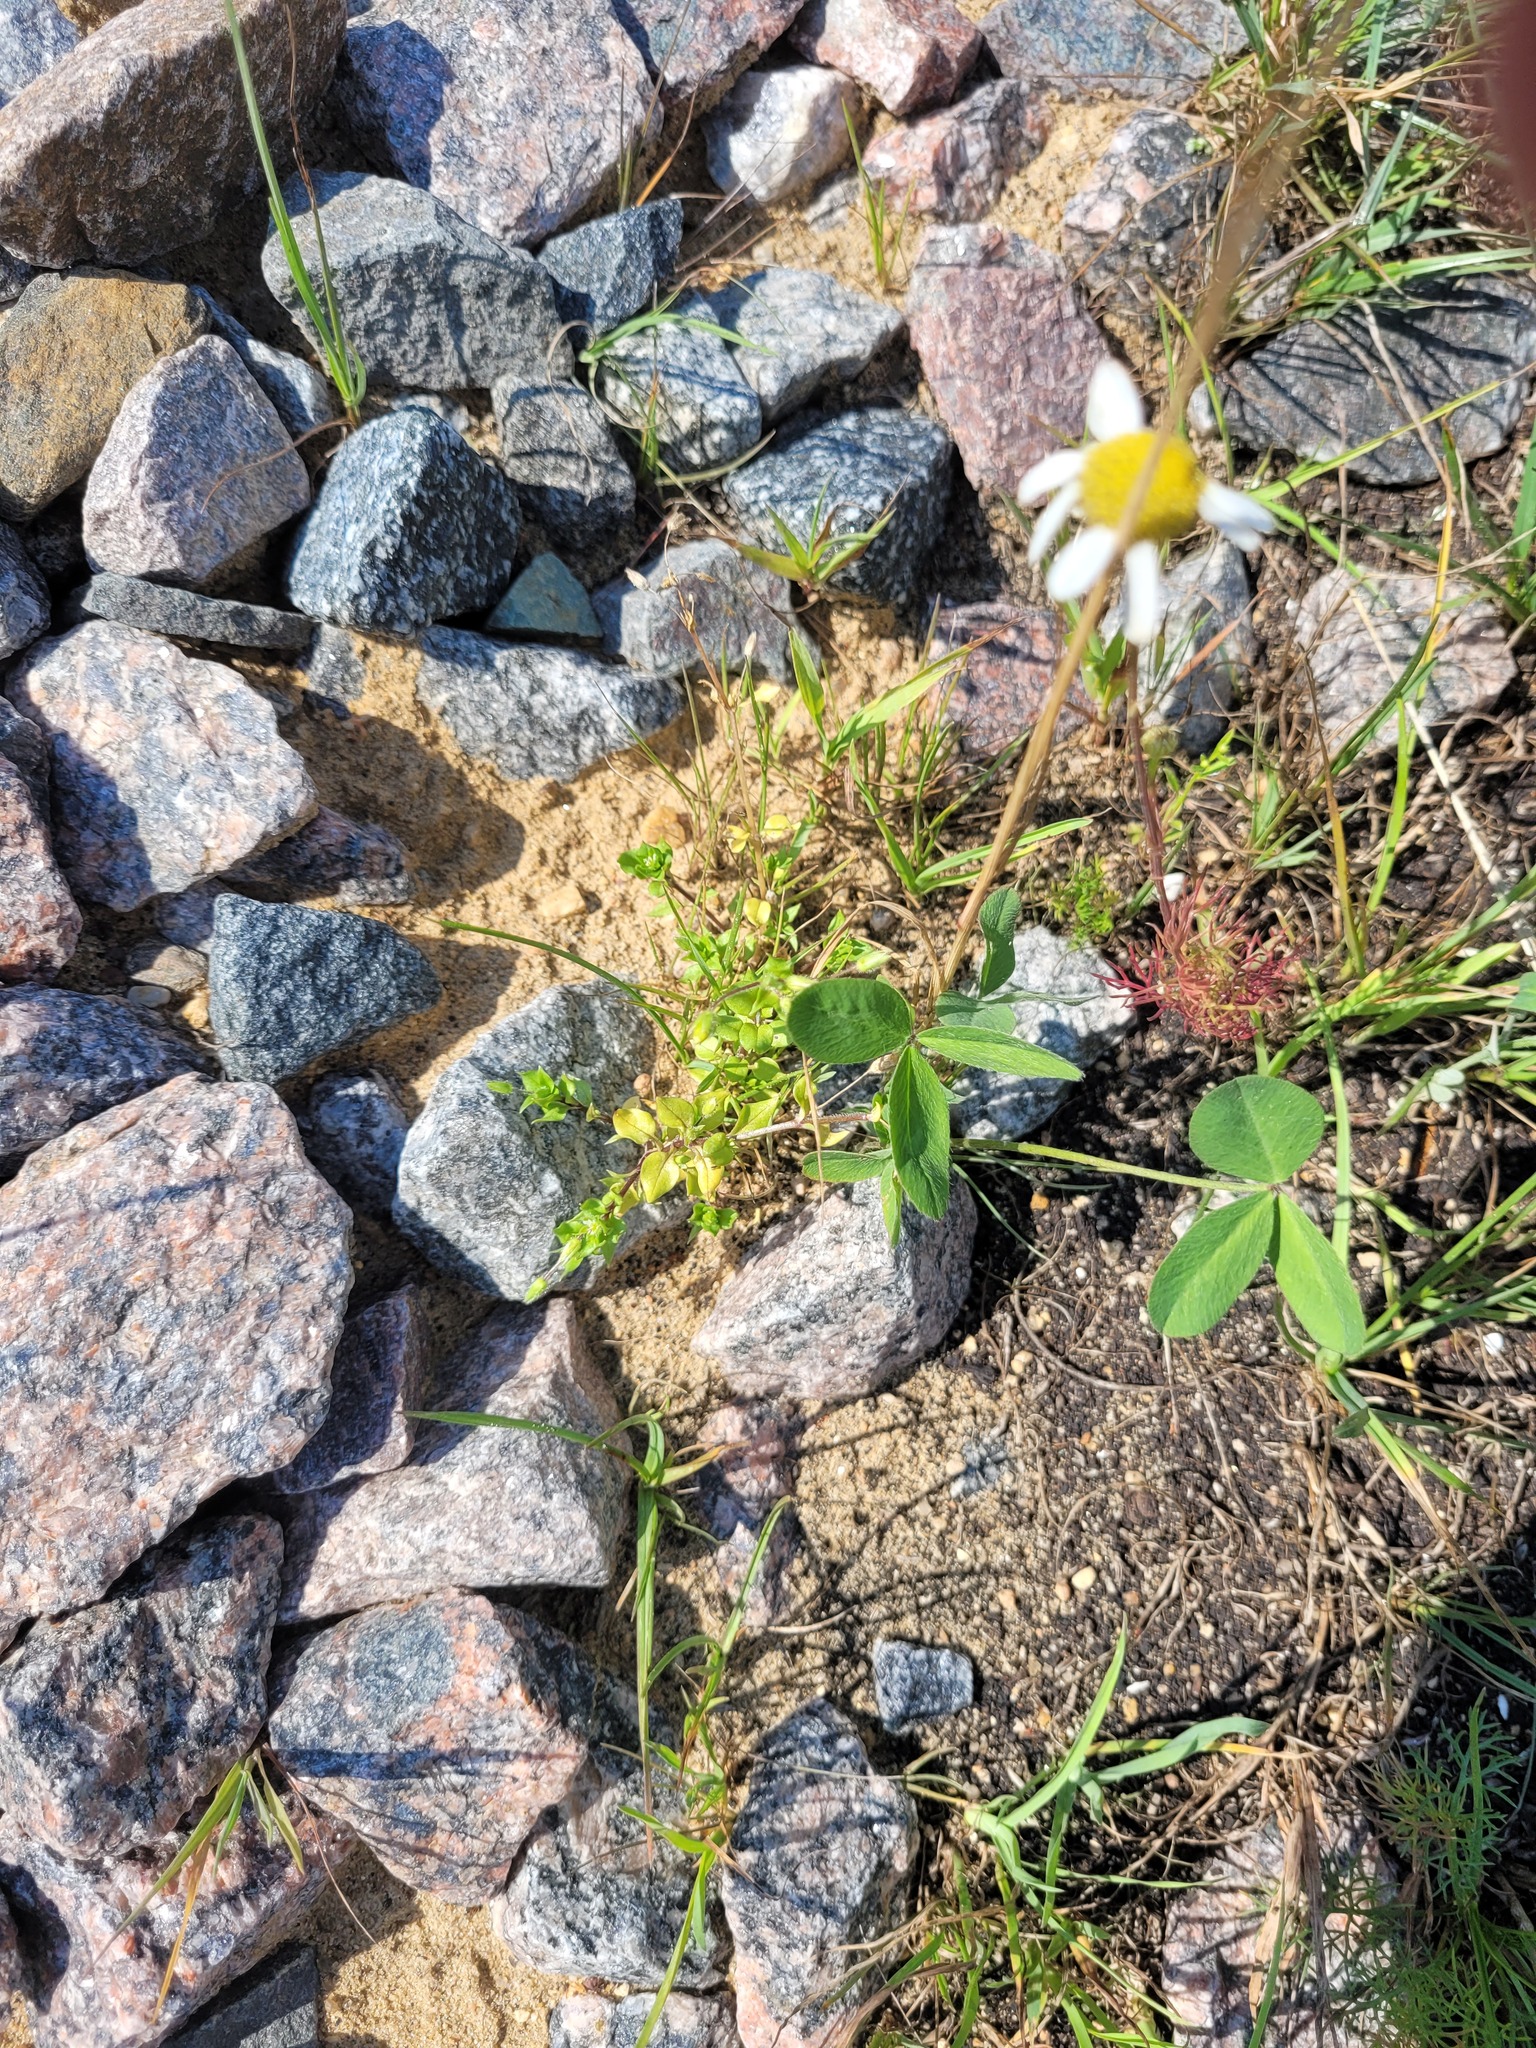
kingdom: Plantae
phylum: Tracheophyta
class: Magnoliopsida
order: Caryophyllales
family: Caryophyllaceae
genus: Stellaria
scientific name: Stellaria media
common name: Common chickweed
